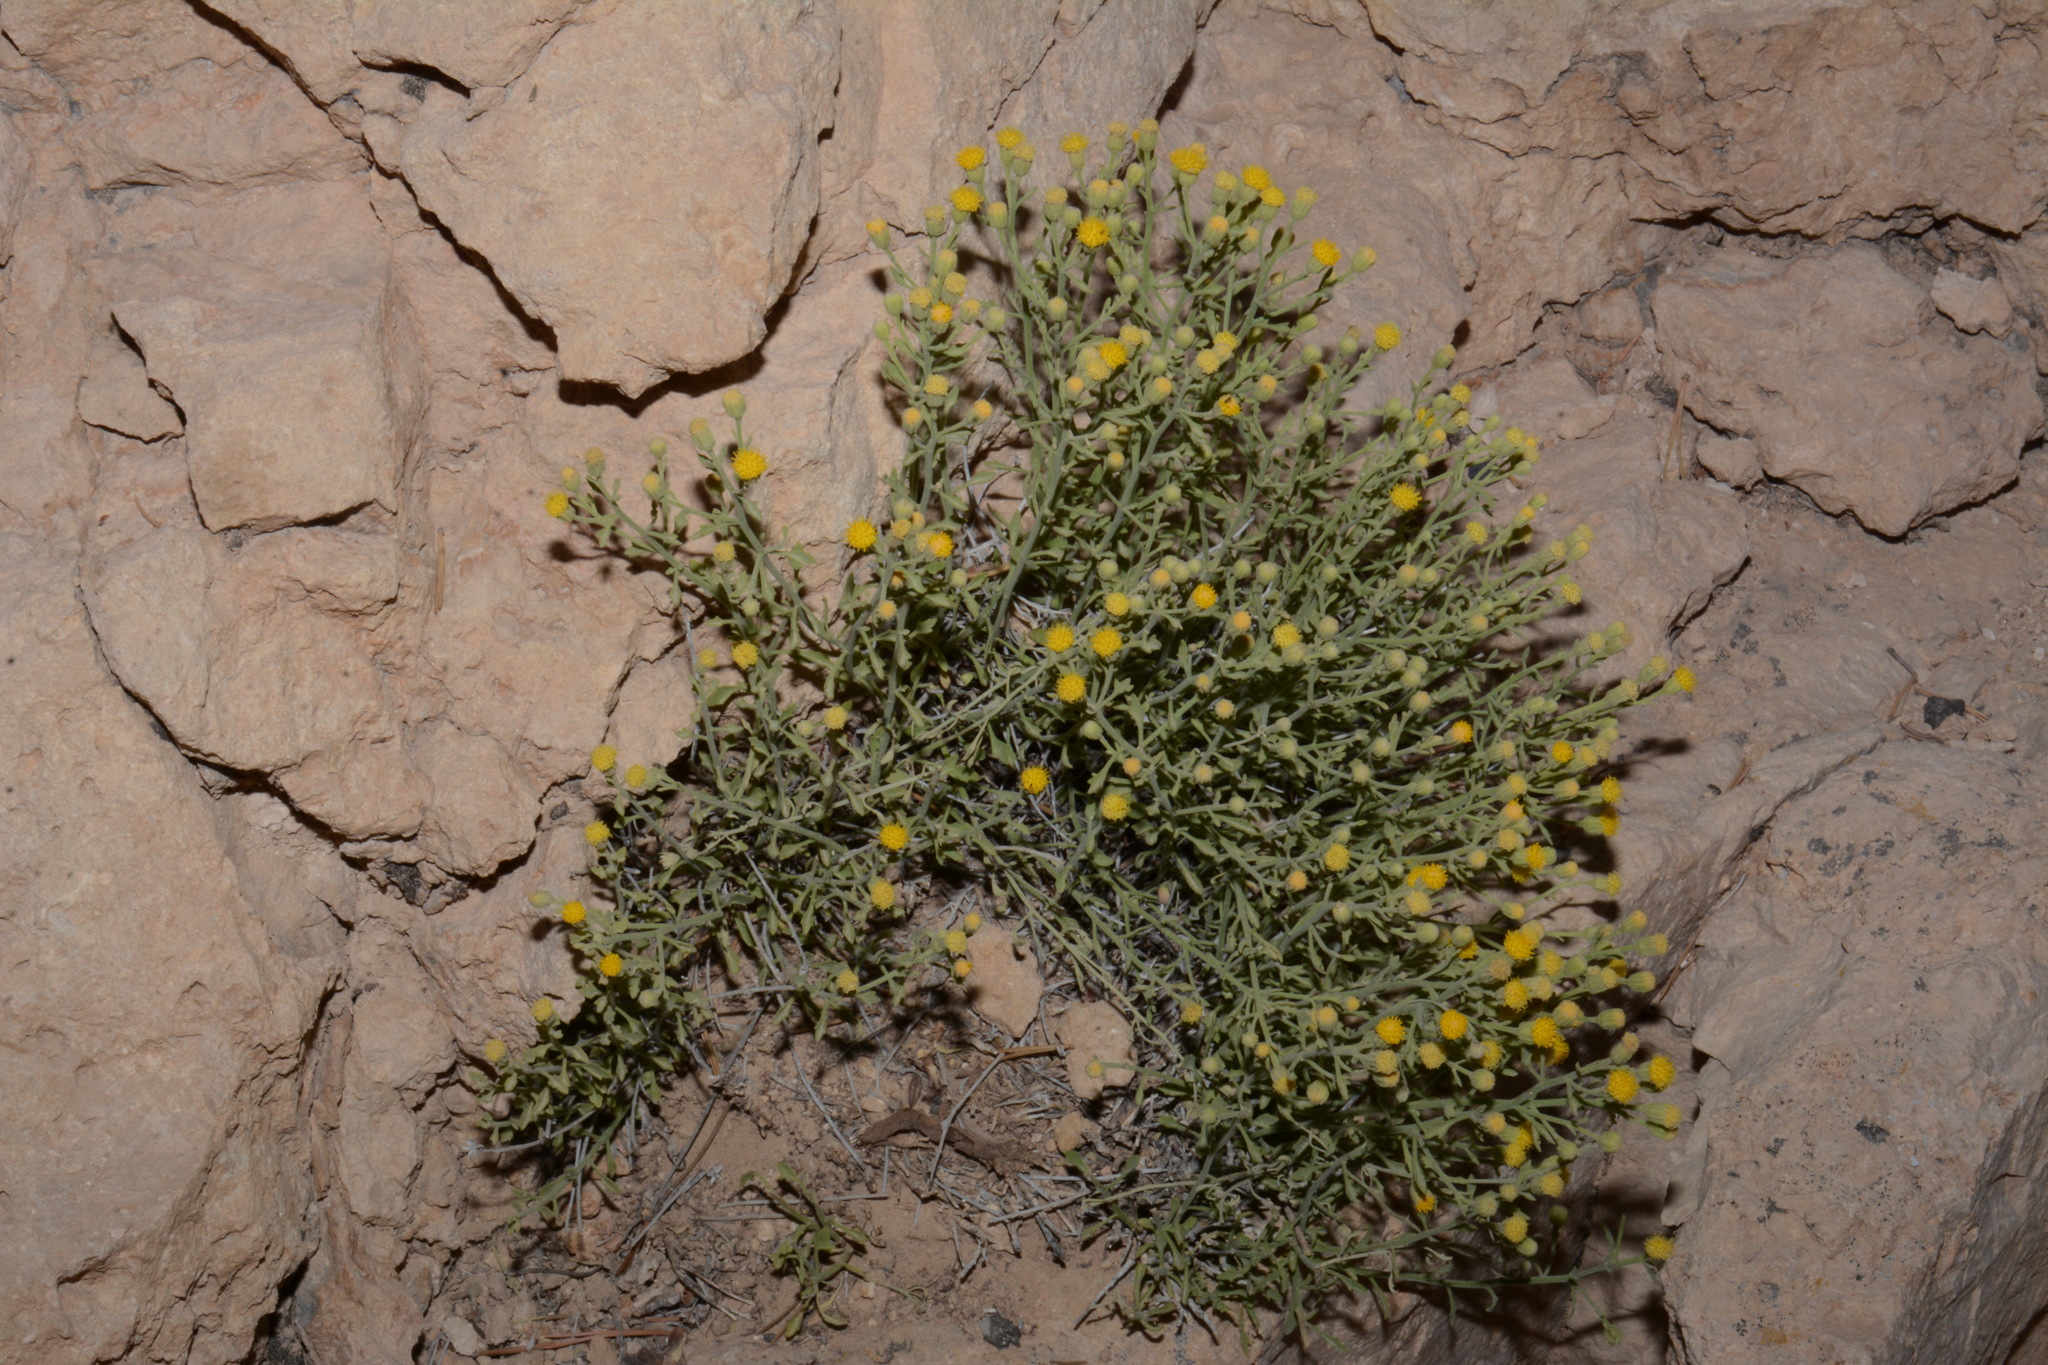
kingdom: Plantae
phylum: Tracheophyta
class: Magnoliopsida
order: Asterales
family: Asteraceae
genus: Laphamia
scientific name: Laphamia congesta
